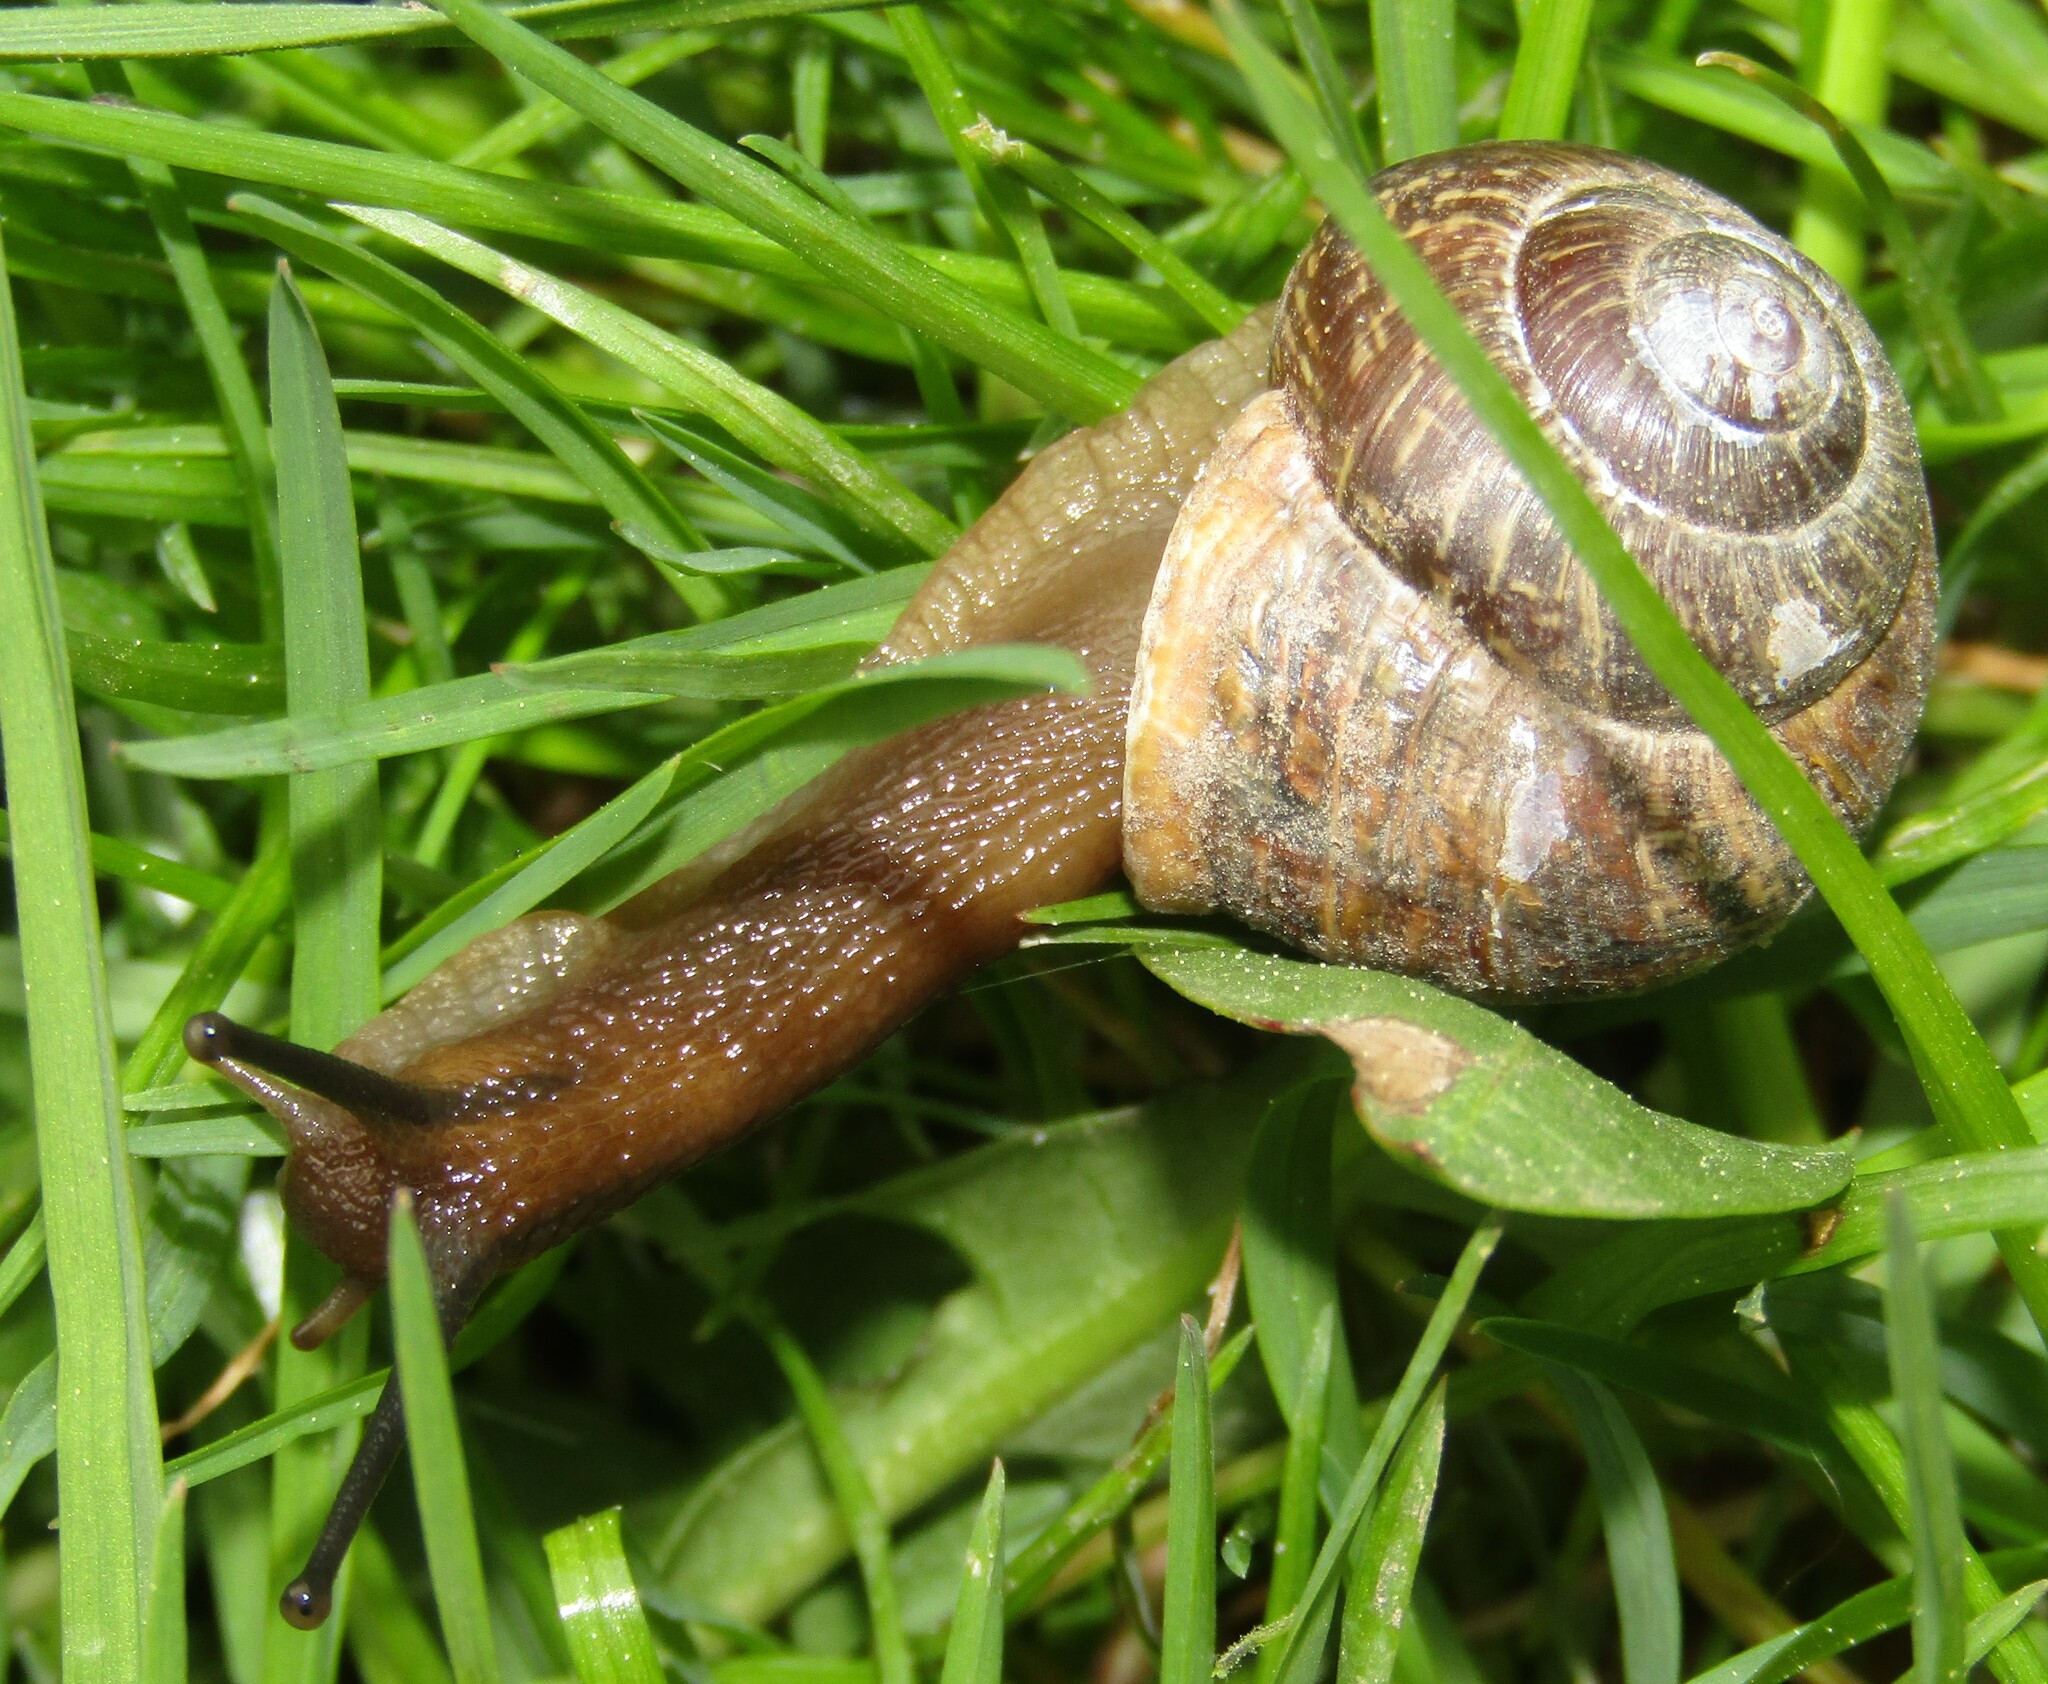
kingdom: Animalia
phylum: Mollusca
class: Gastropoda
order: Stylommatophora
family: Helicidae
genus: Arianta
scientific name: Arianta arbustorum
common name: Copse snail
